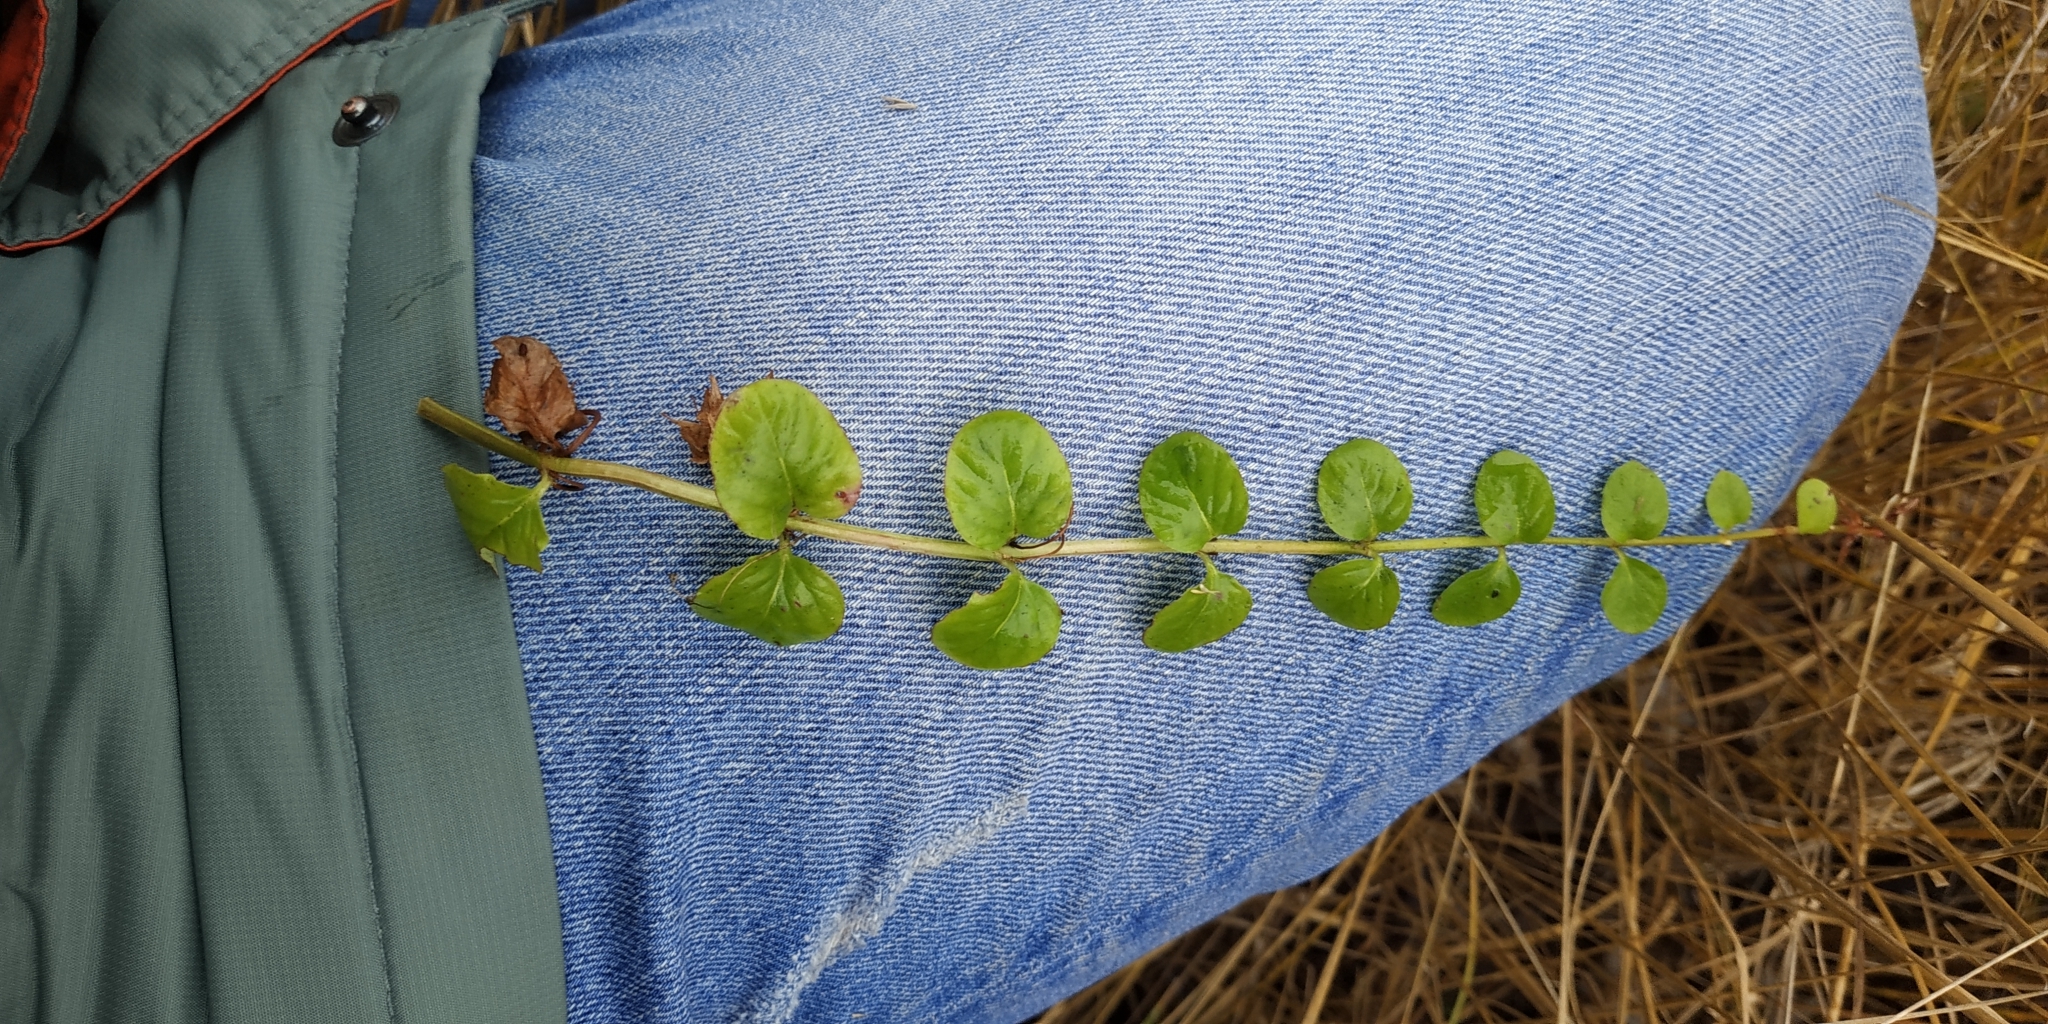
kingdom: Plantae
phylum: Tracheophyta
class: Magnoliopsida
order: Ericales
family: Primulaceae
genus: Lysimachia
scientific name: Lysimachia nummularia
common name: Moneywort
